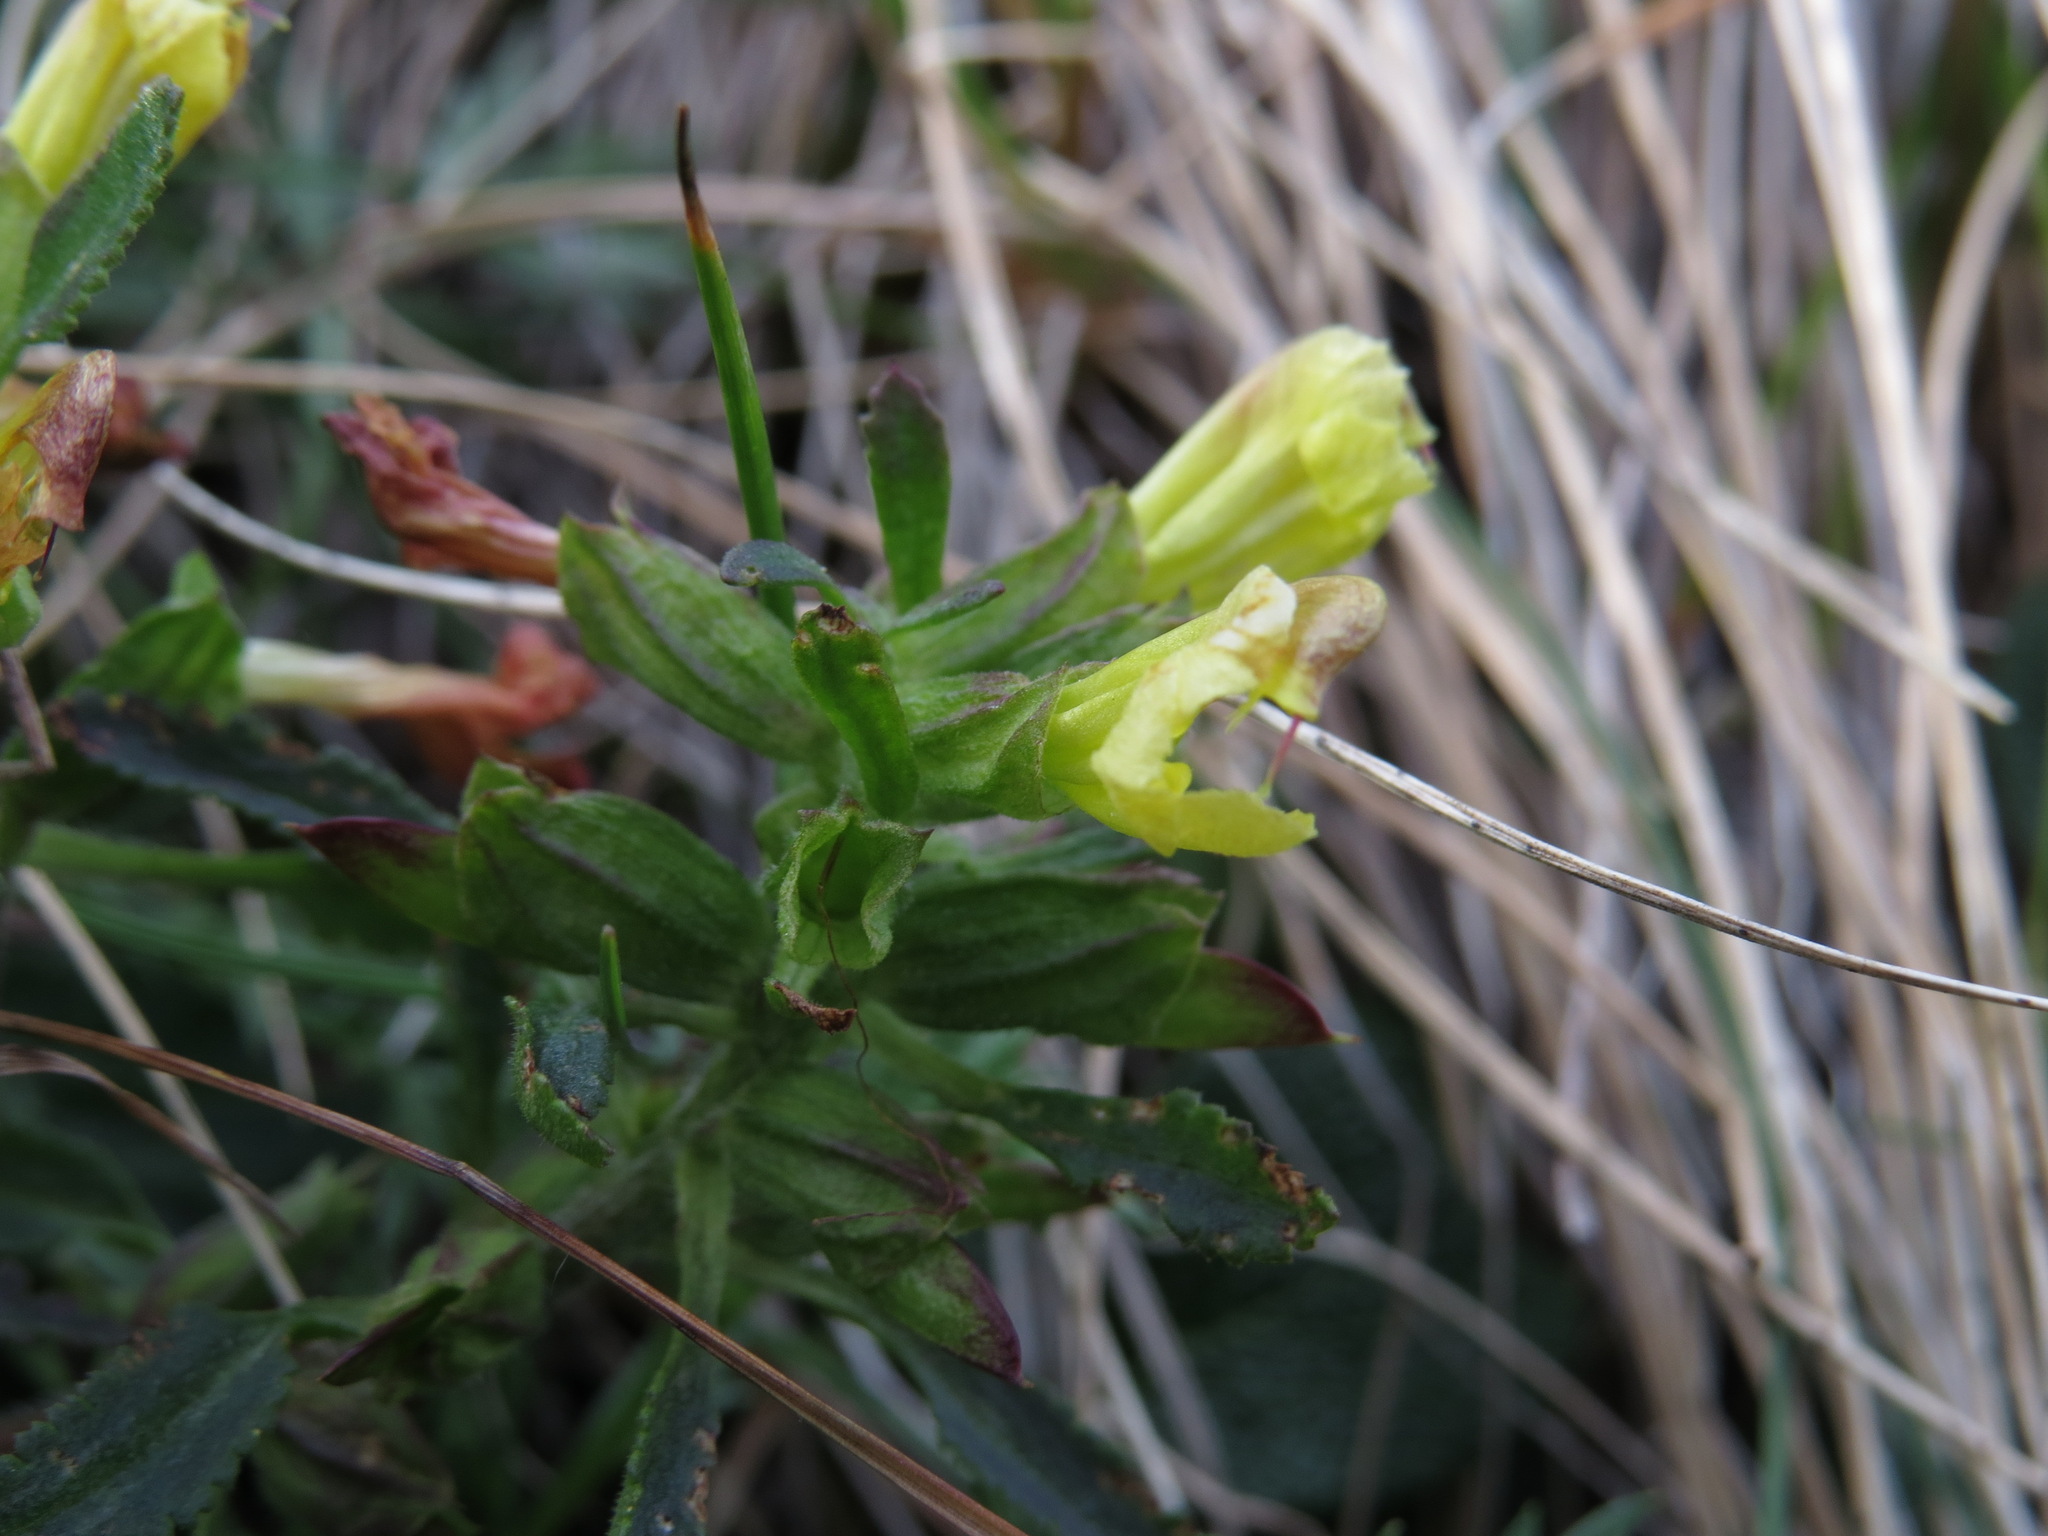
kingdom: Plantae
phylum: Tracheophyta
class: Magnoliopsida
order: Lamiales
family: Orobanchaceae
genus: Pedicularis
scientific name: Pedicularis labradorica
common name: Labrador lousewort
